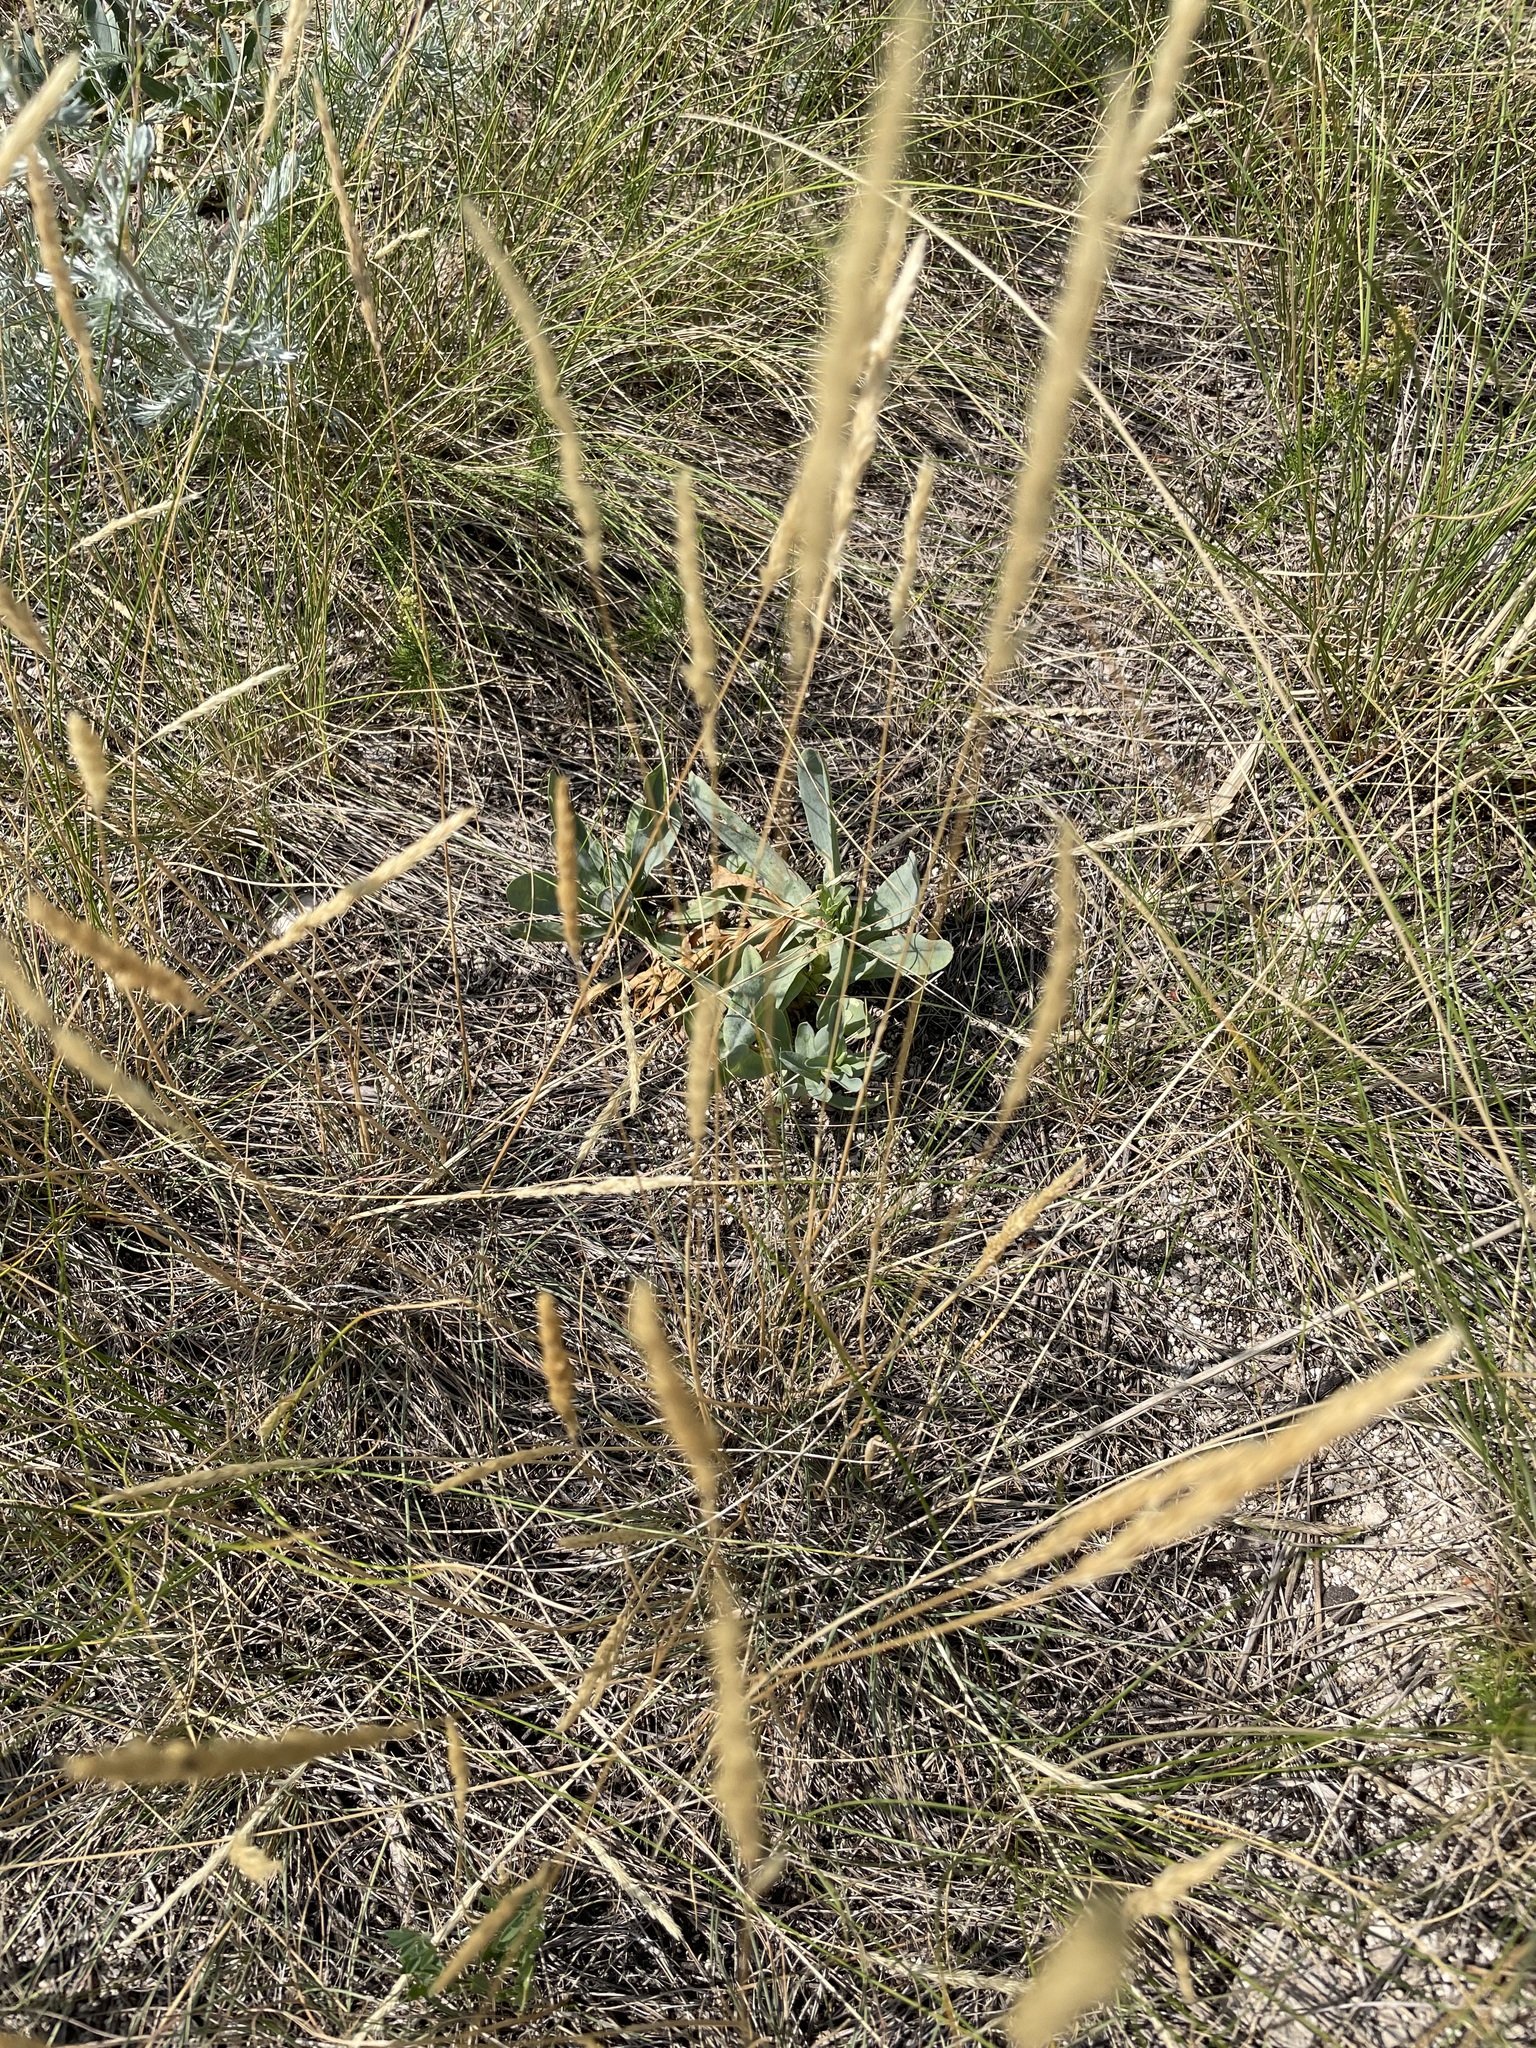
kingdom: Plantae
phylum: Tracheophyta
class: Liliopsida
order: Poales
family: Poaceae
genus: Koeleria
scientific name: Koeleria macrantha
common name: Crested hair-grass
